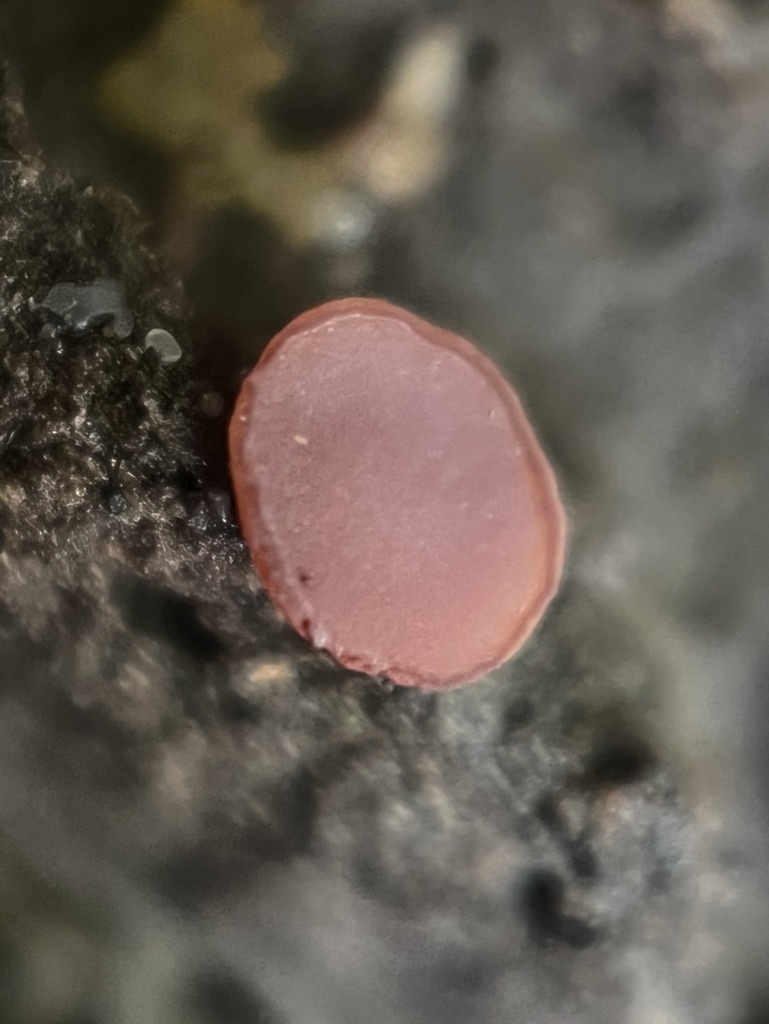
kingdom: Fungi
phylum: Ascomycota
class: Leotiomycetes
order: Helotiales
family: Gelatinodiscaceae
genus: Ascocoryne
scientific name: Ascocoryne sarcoides
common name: Purple jellydisc
